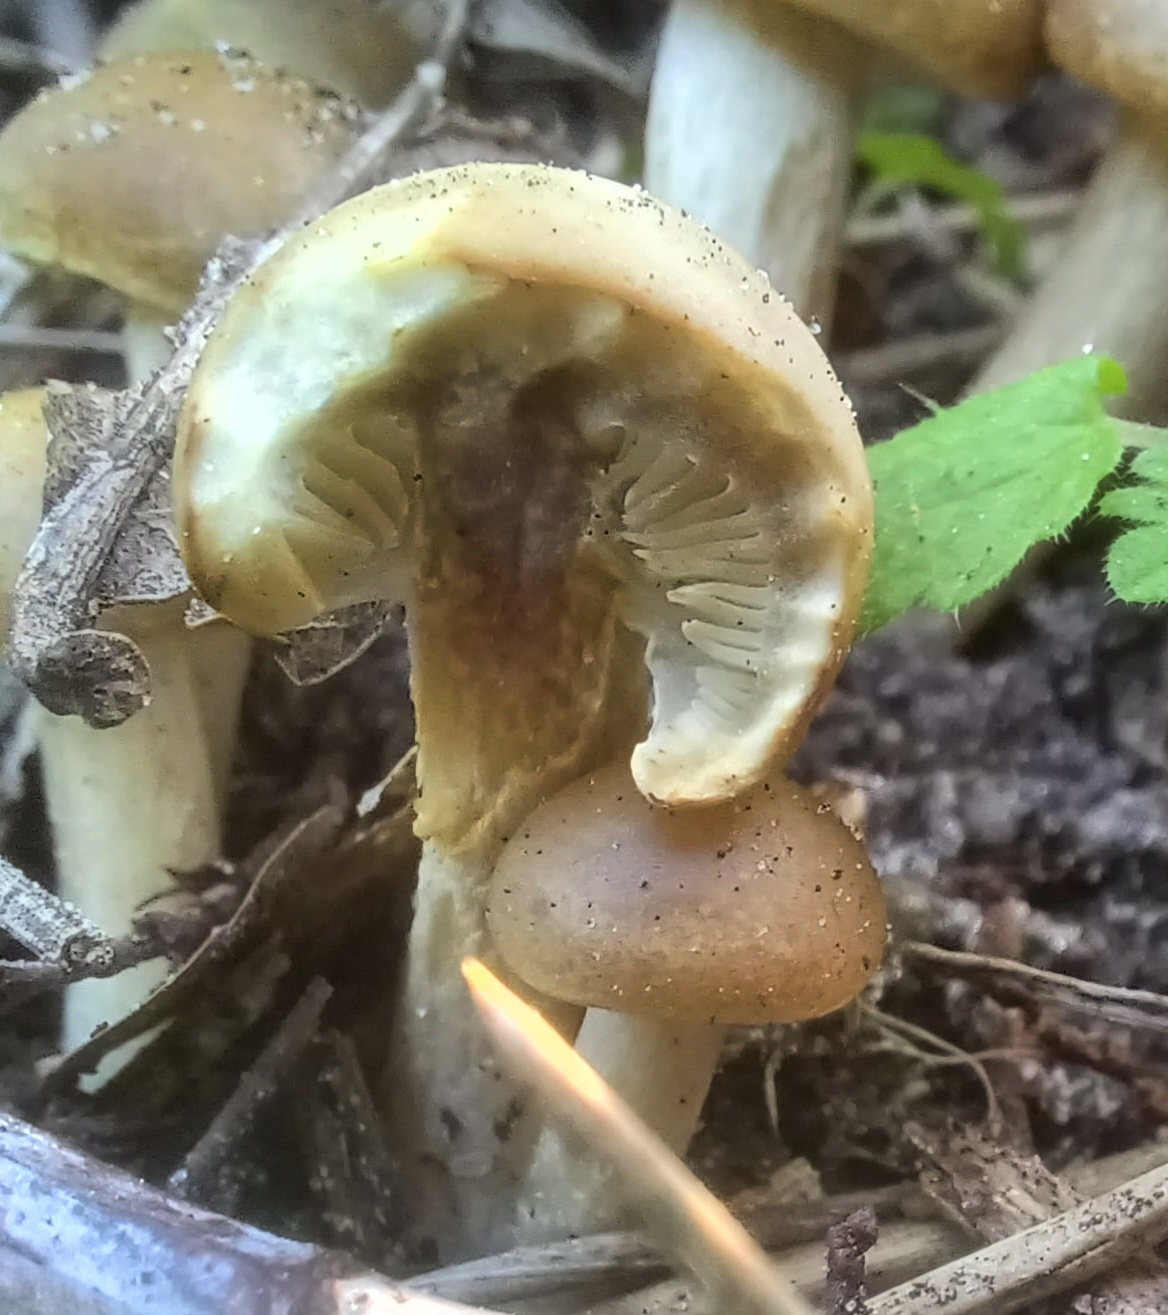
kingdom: Fungi
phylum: Basidiomycota
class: Agaricomycetes
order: Agaricales
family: Strophariaceae
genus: Kuehneromyces
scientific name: Kuehneromyces mutabilis
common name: Sheathed woodtuft
